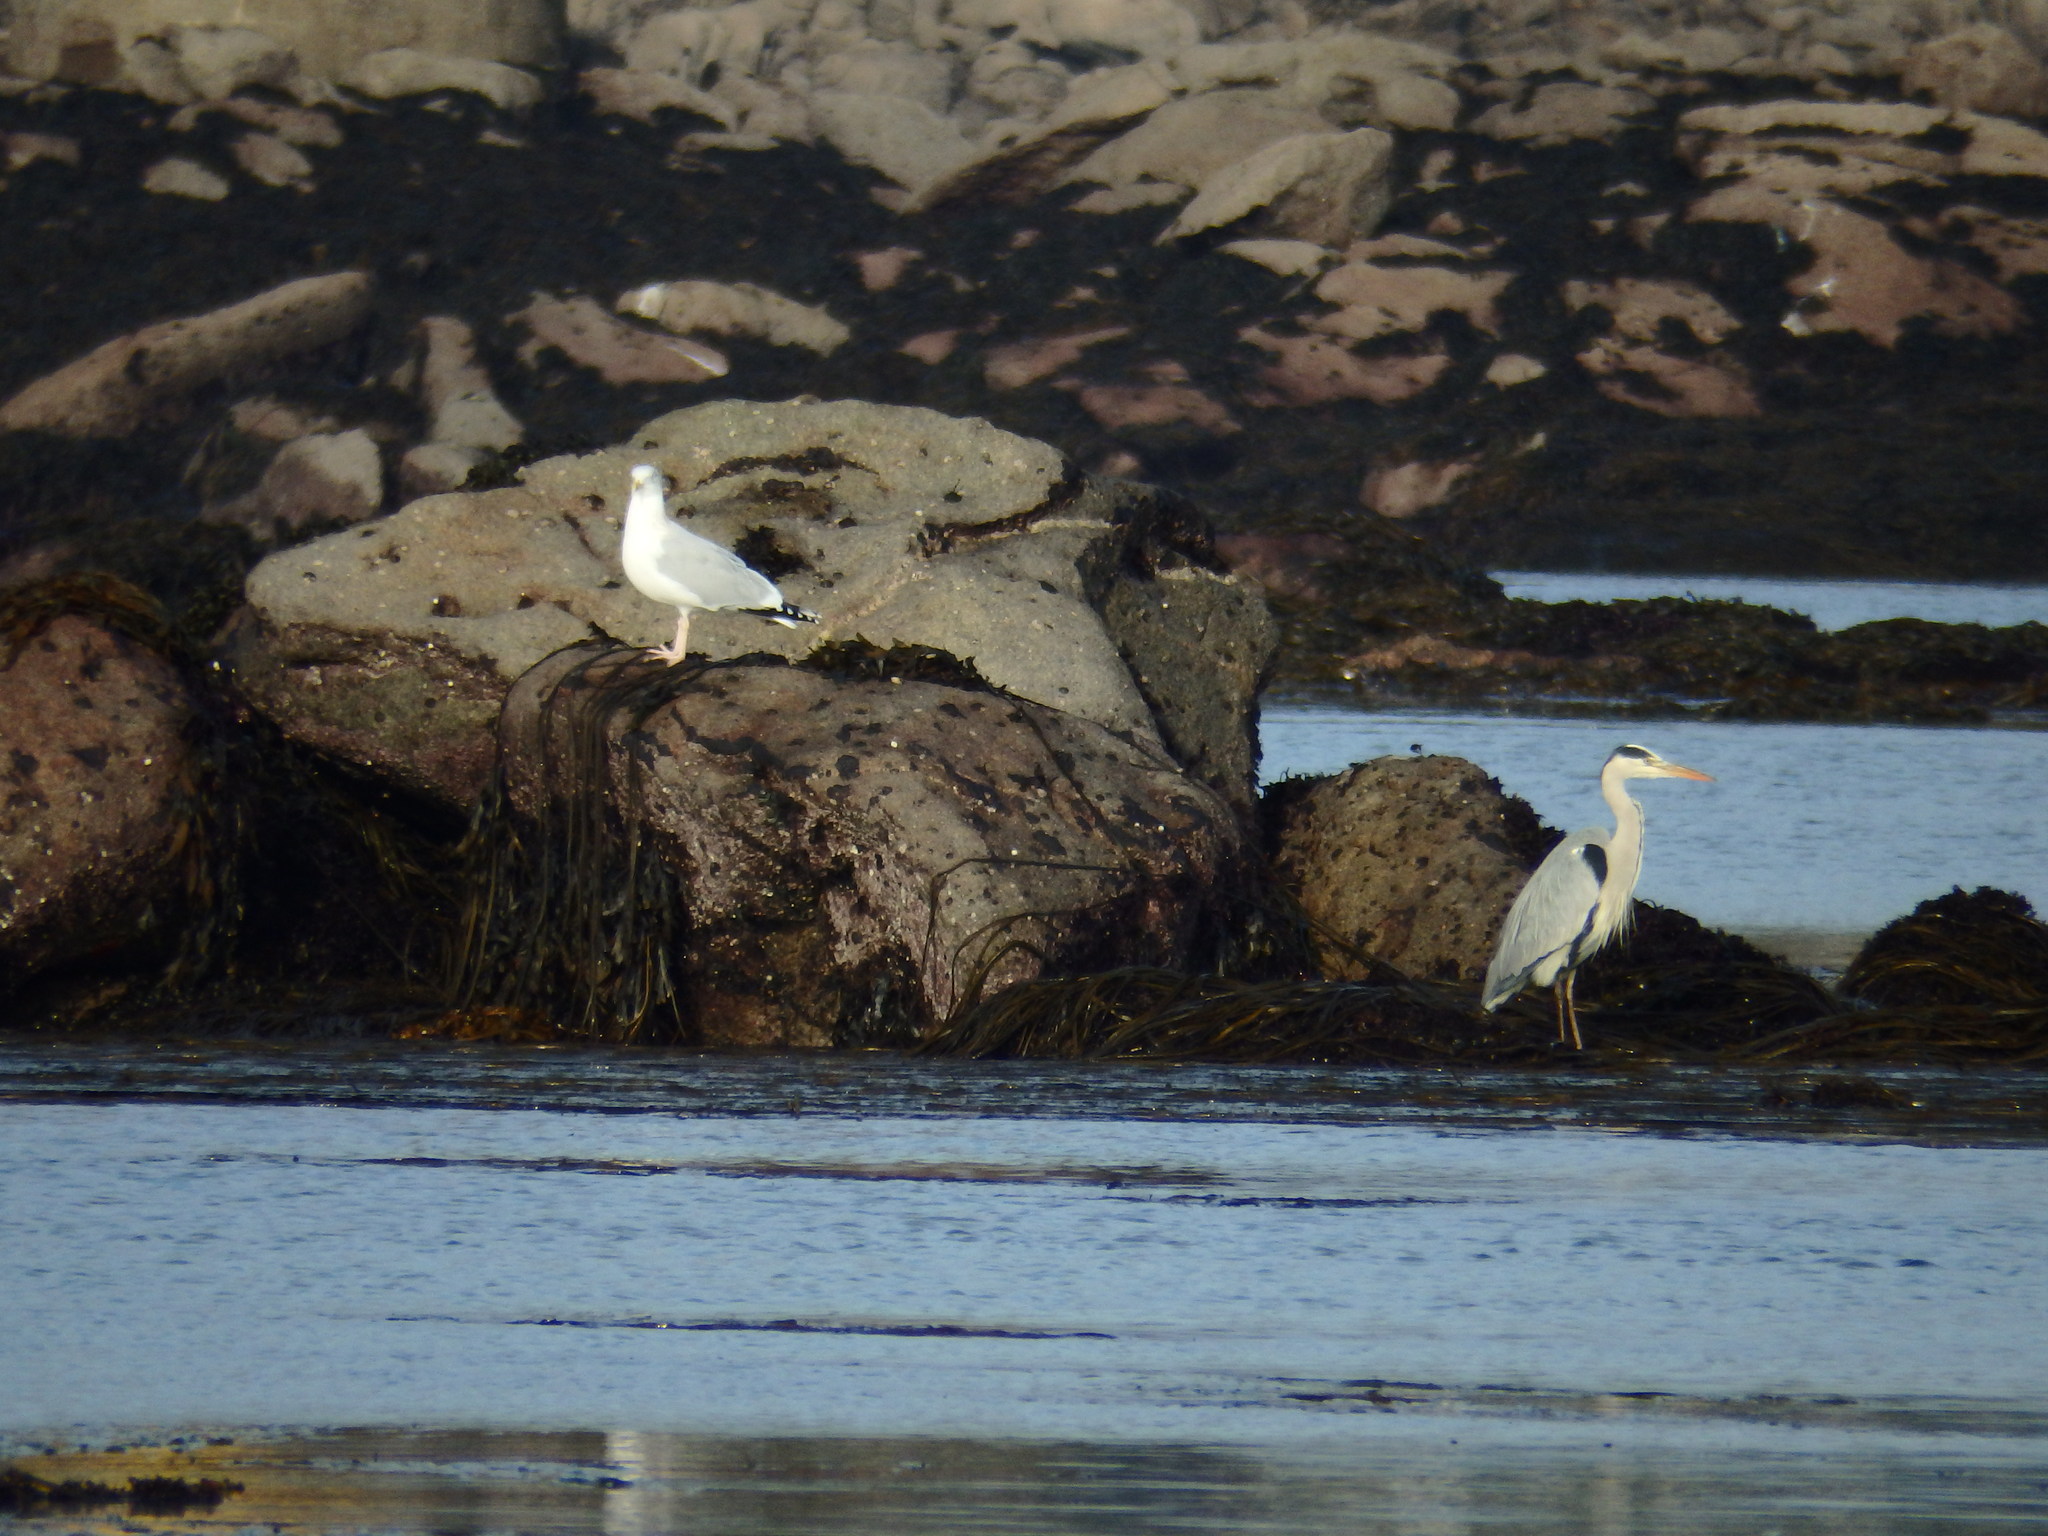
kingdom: Animalia
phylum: Chordata
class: Aves
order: Charadriiformes
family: Laridae
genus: Larus
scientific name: Larus argentatus
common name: Herring gull
